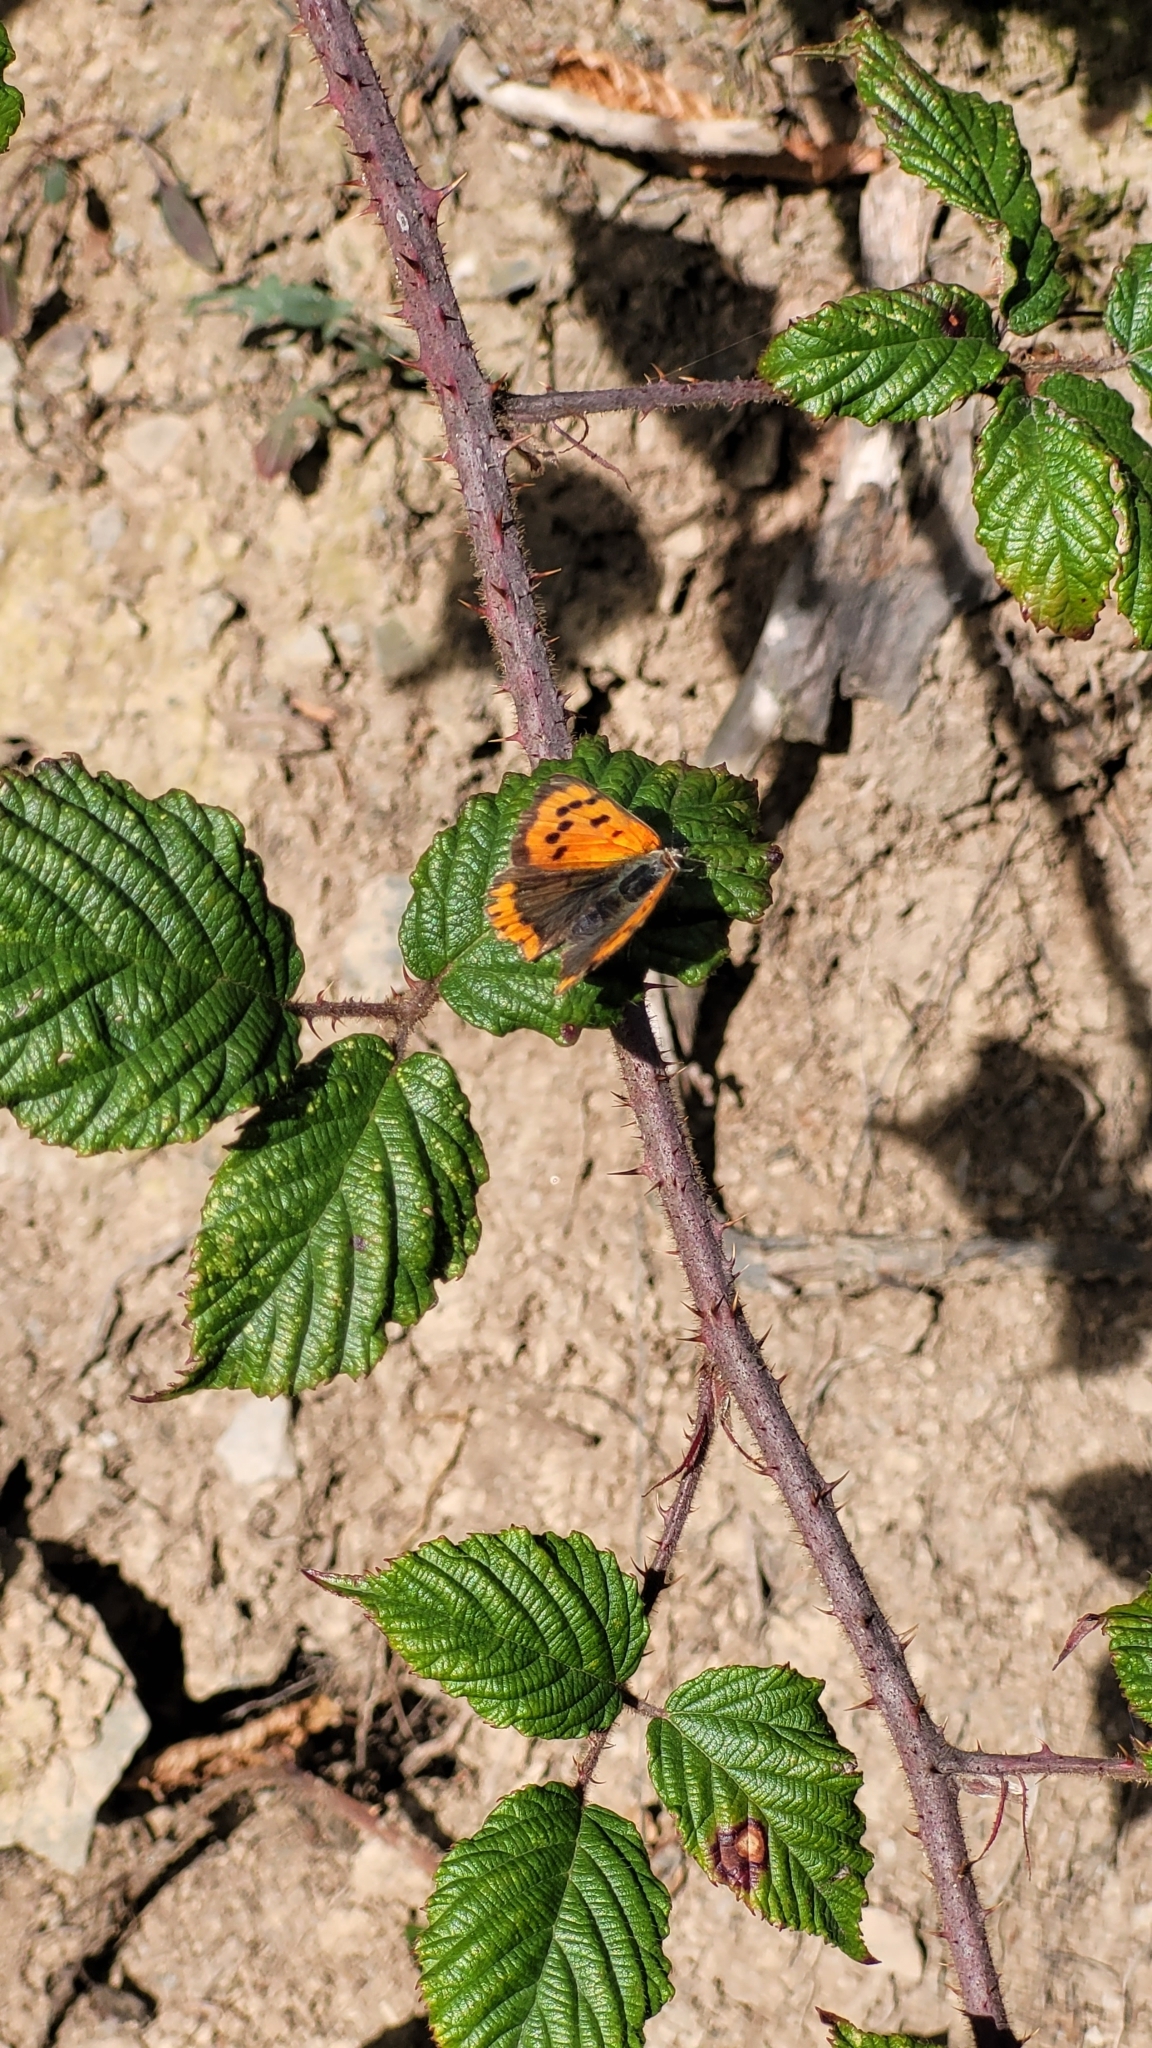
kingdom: Animalia
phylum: Arthropoda
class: Insecta
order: Lepidoptera
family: Lycaenidae
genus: Lycaena
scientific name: Lycaena phlaeas
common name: Small copper
